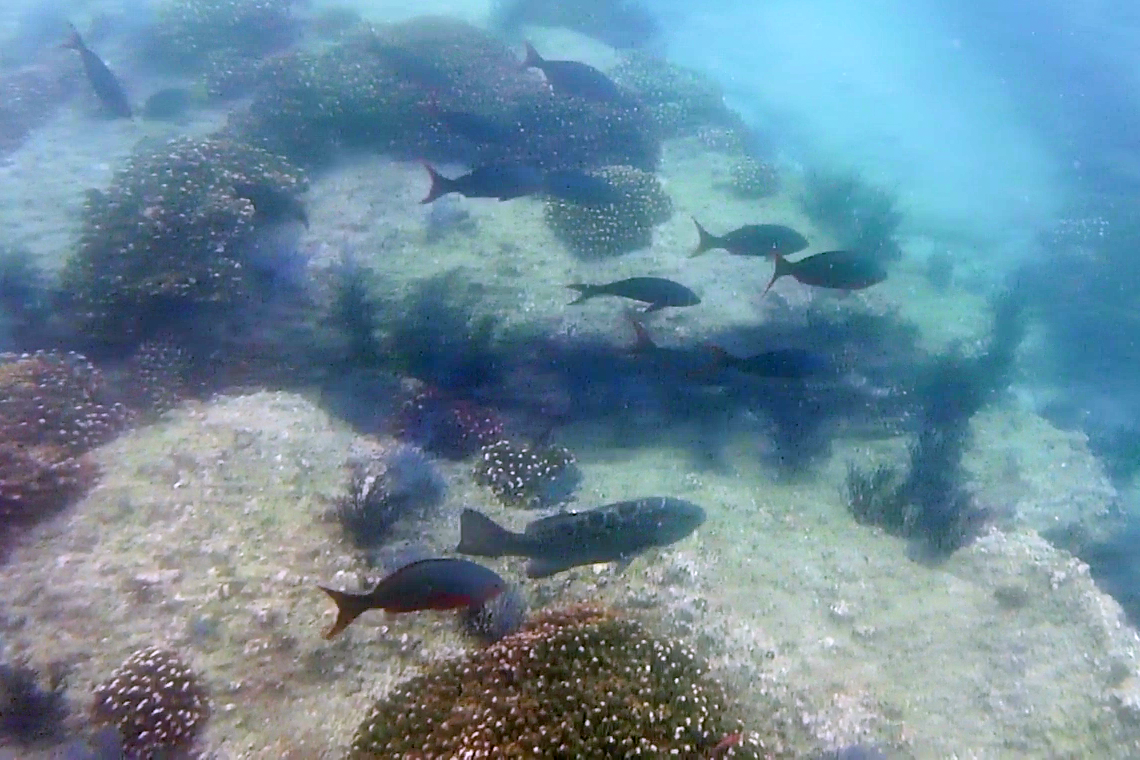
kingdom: Animalia
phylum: Chordata
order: Perciformes
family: Serranidae
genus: Mycteroperca
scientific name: Mycteroperca rosacea
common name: Leopard grouper
